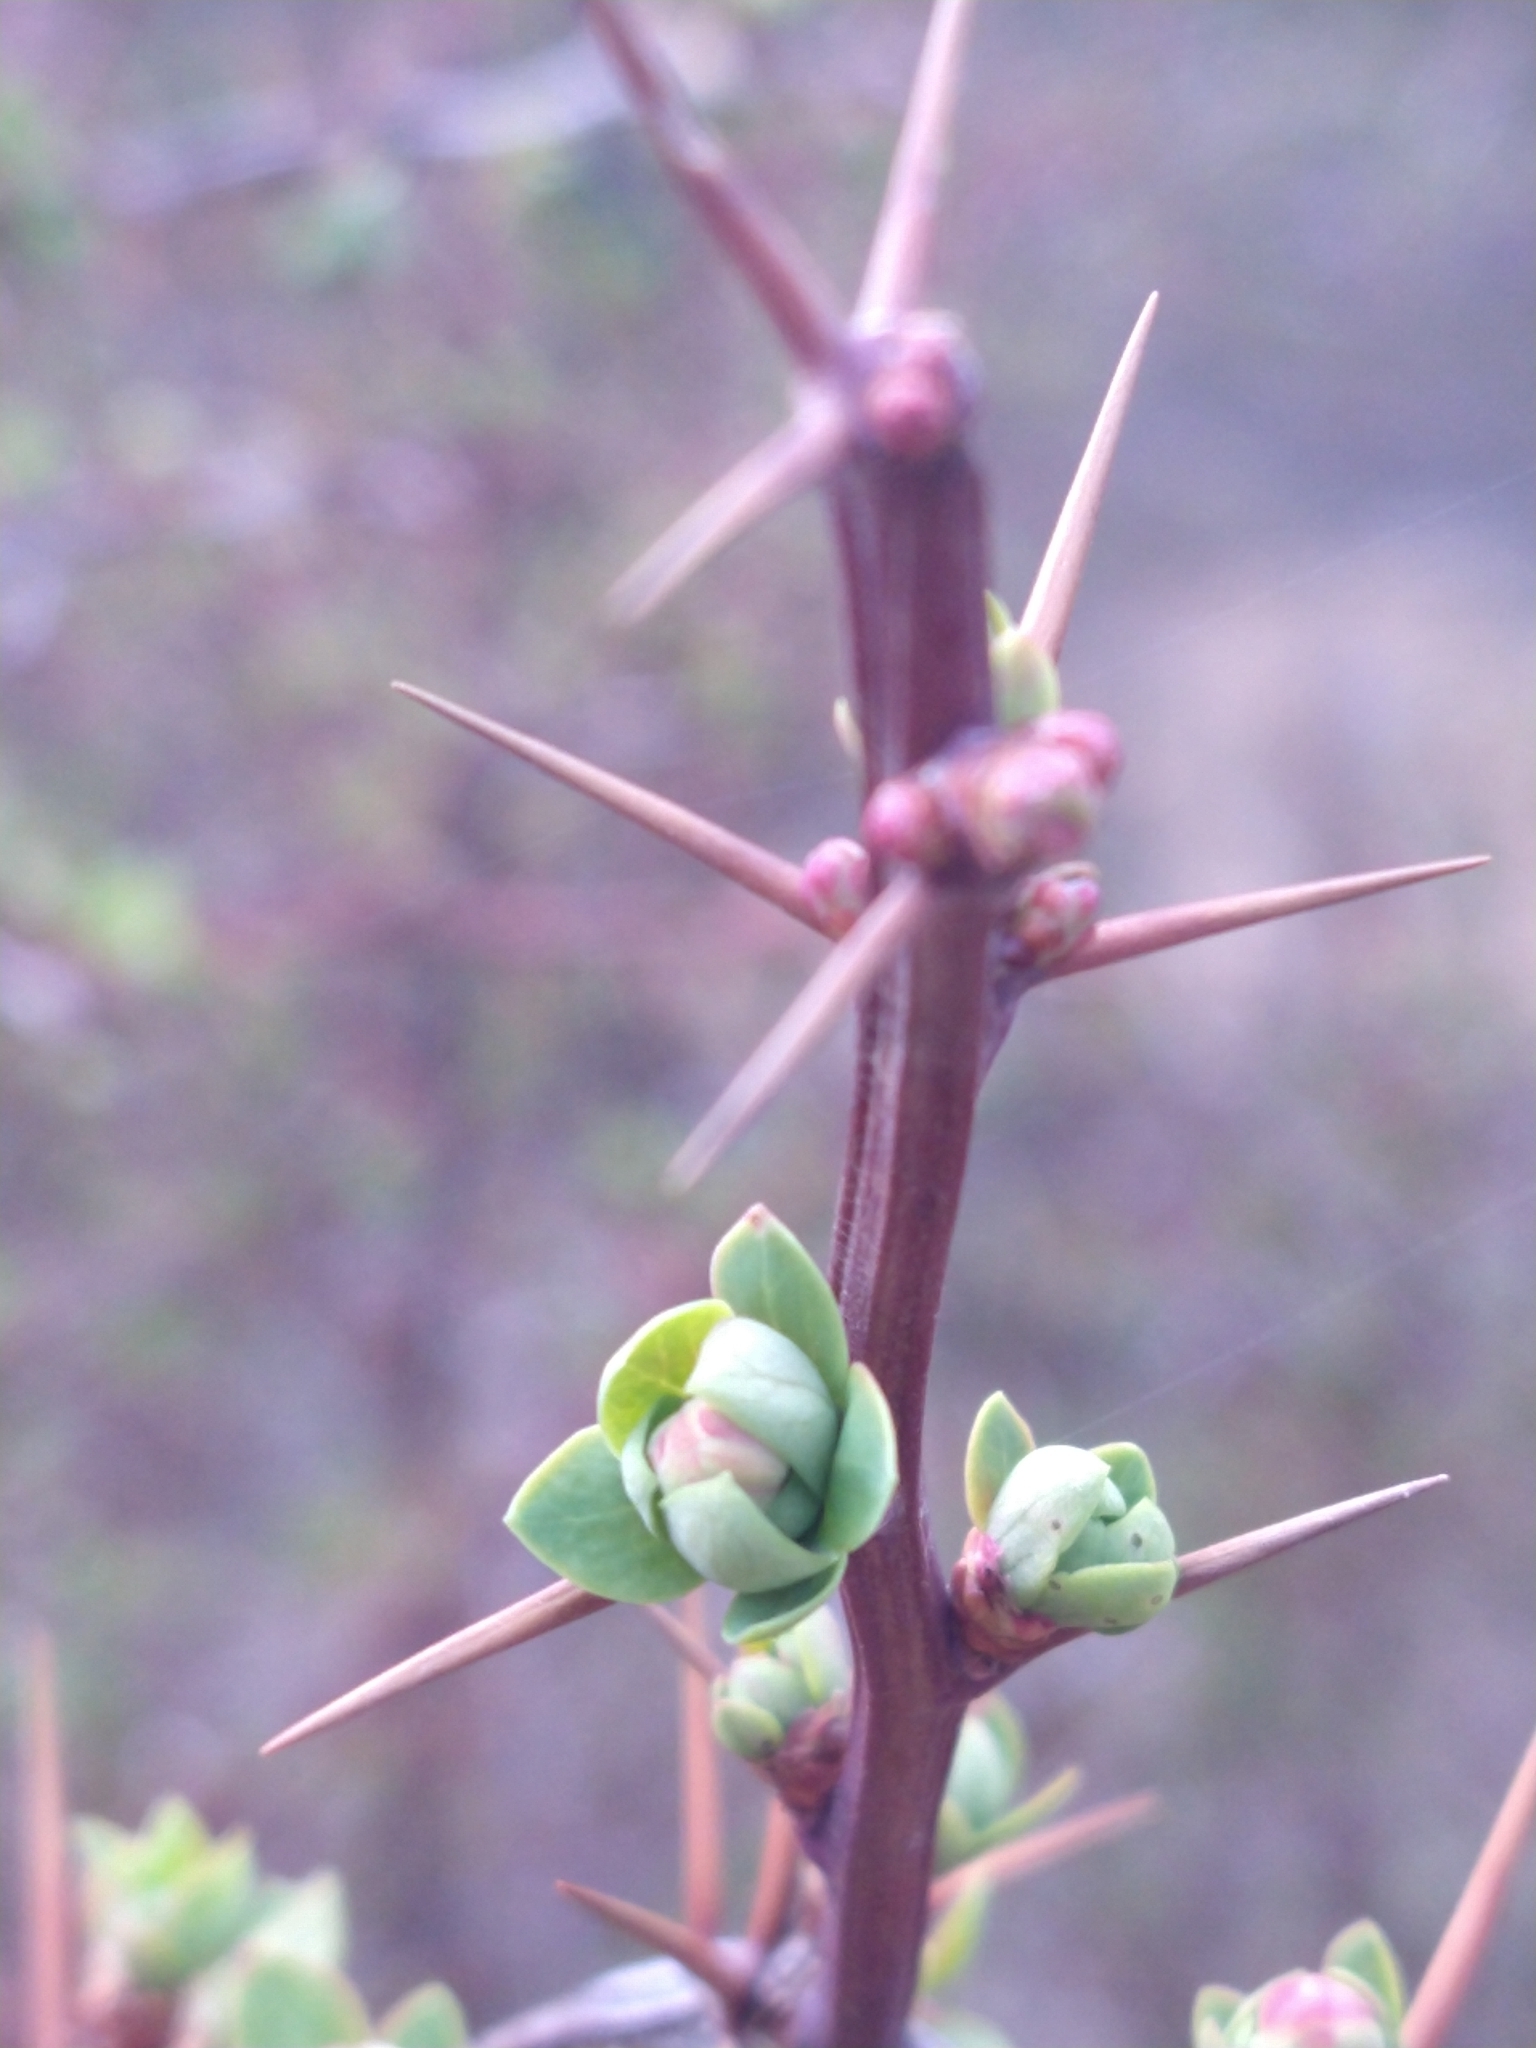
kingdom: Plantae
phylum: Tracheophyta
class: Magnoliopsida
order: Ranunculales
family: Berberidaceae
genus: Berberis
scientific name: Berberis microphylla
